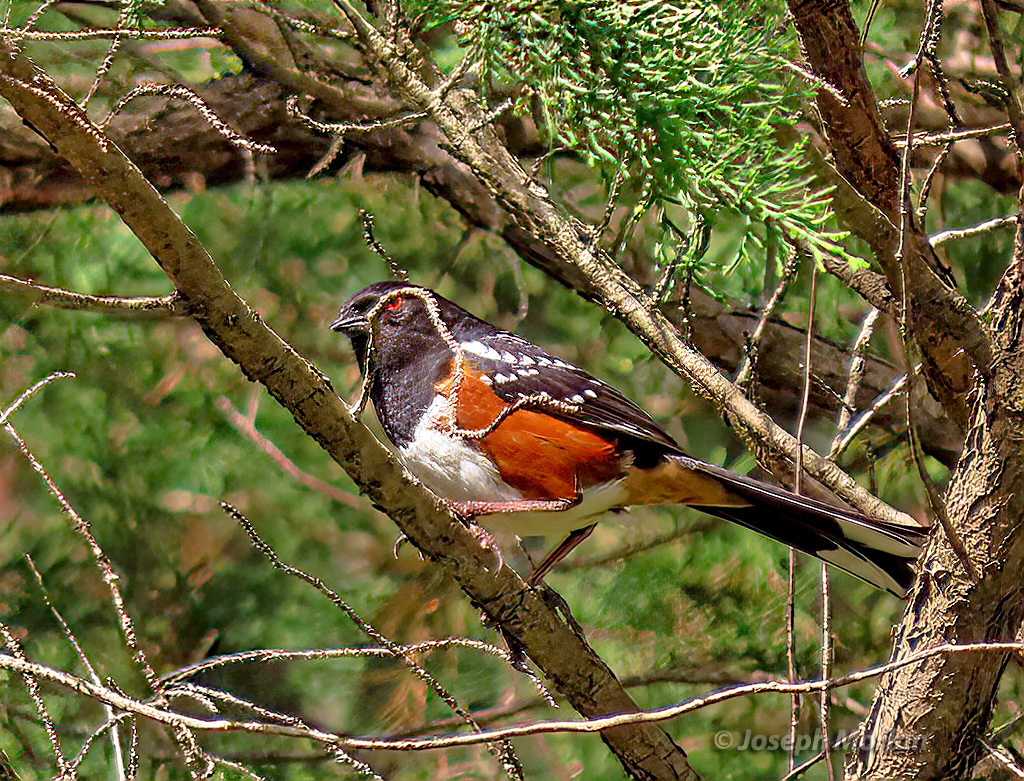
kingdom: Animalia
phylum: Chordata
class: Aves
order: Passeriformes
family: Passerellidae
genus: Pipilo
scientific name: Pipilo maculatus
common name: Spotted towhee
